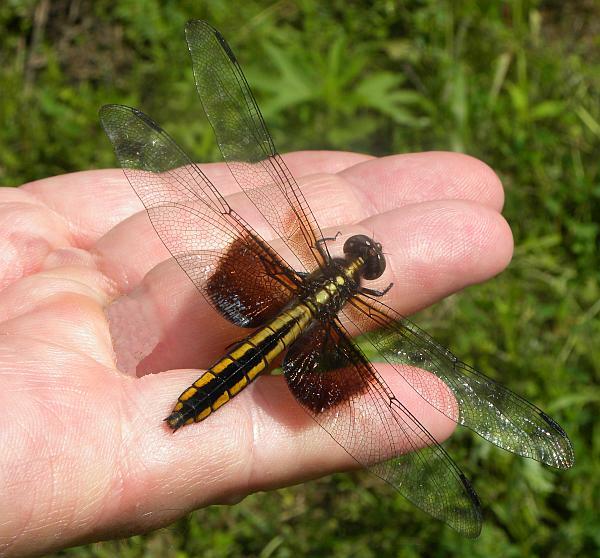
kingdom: Animalia
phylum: Arthropoda
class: Insecta
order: Odonata
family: Libellulidae
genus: Libellula
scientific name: Libellula luctuosa
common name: Widow skimmer
